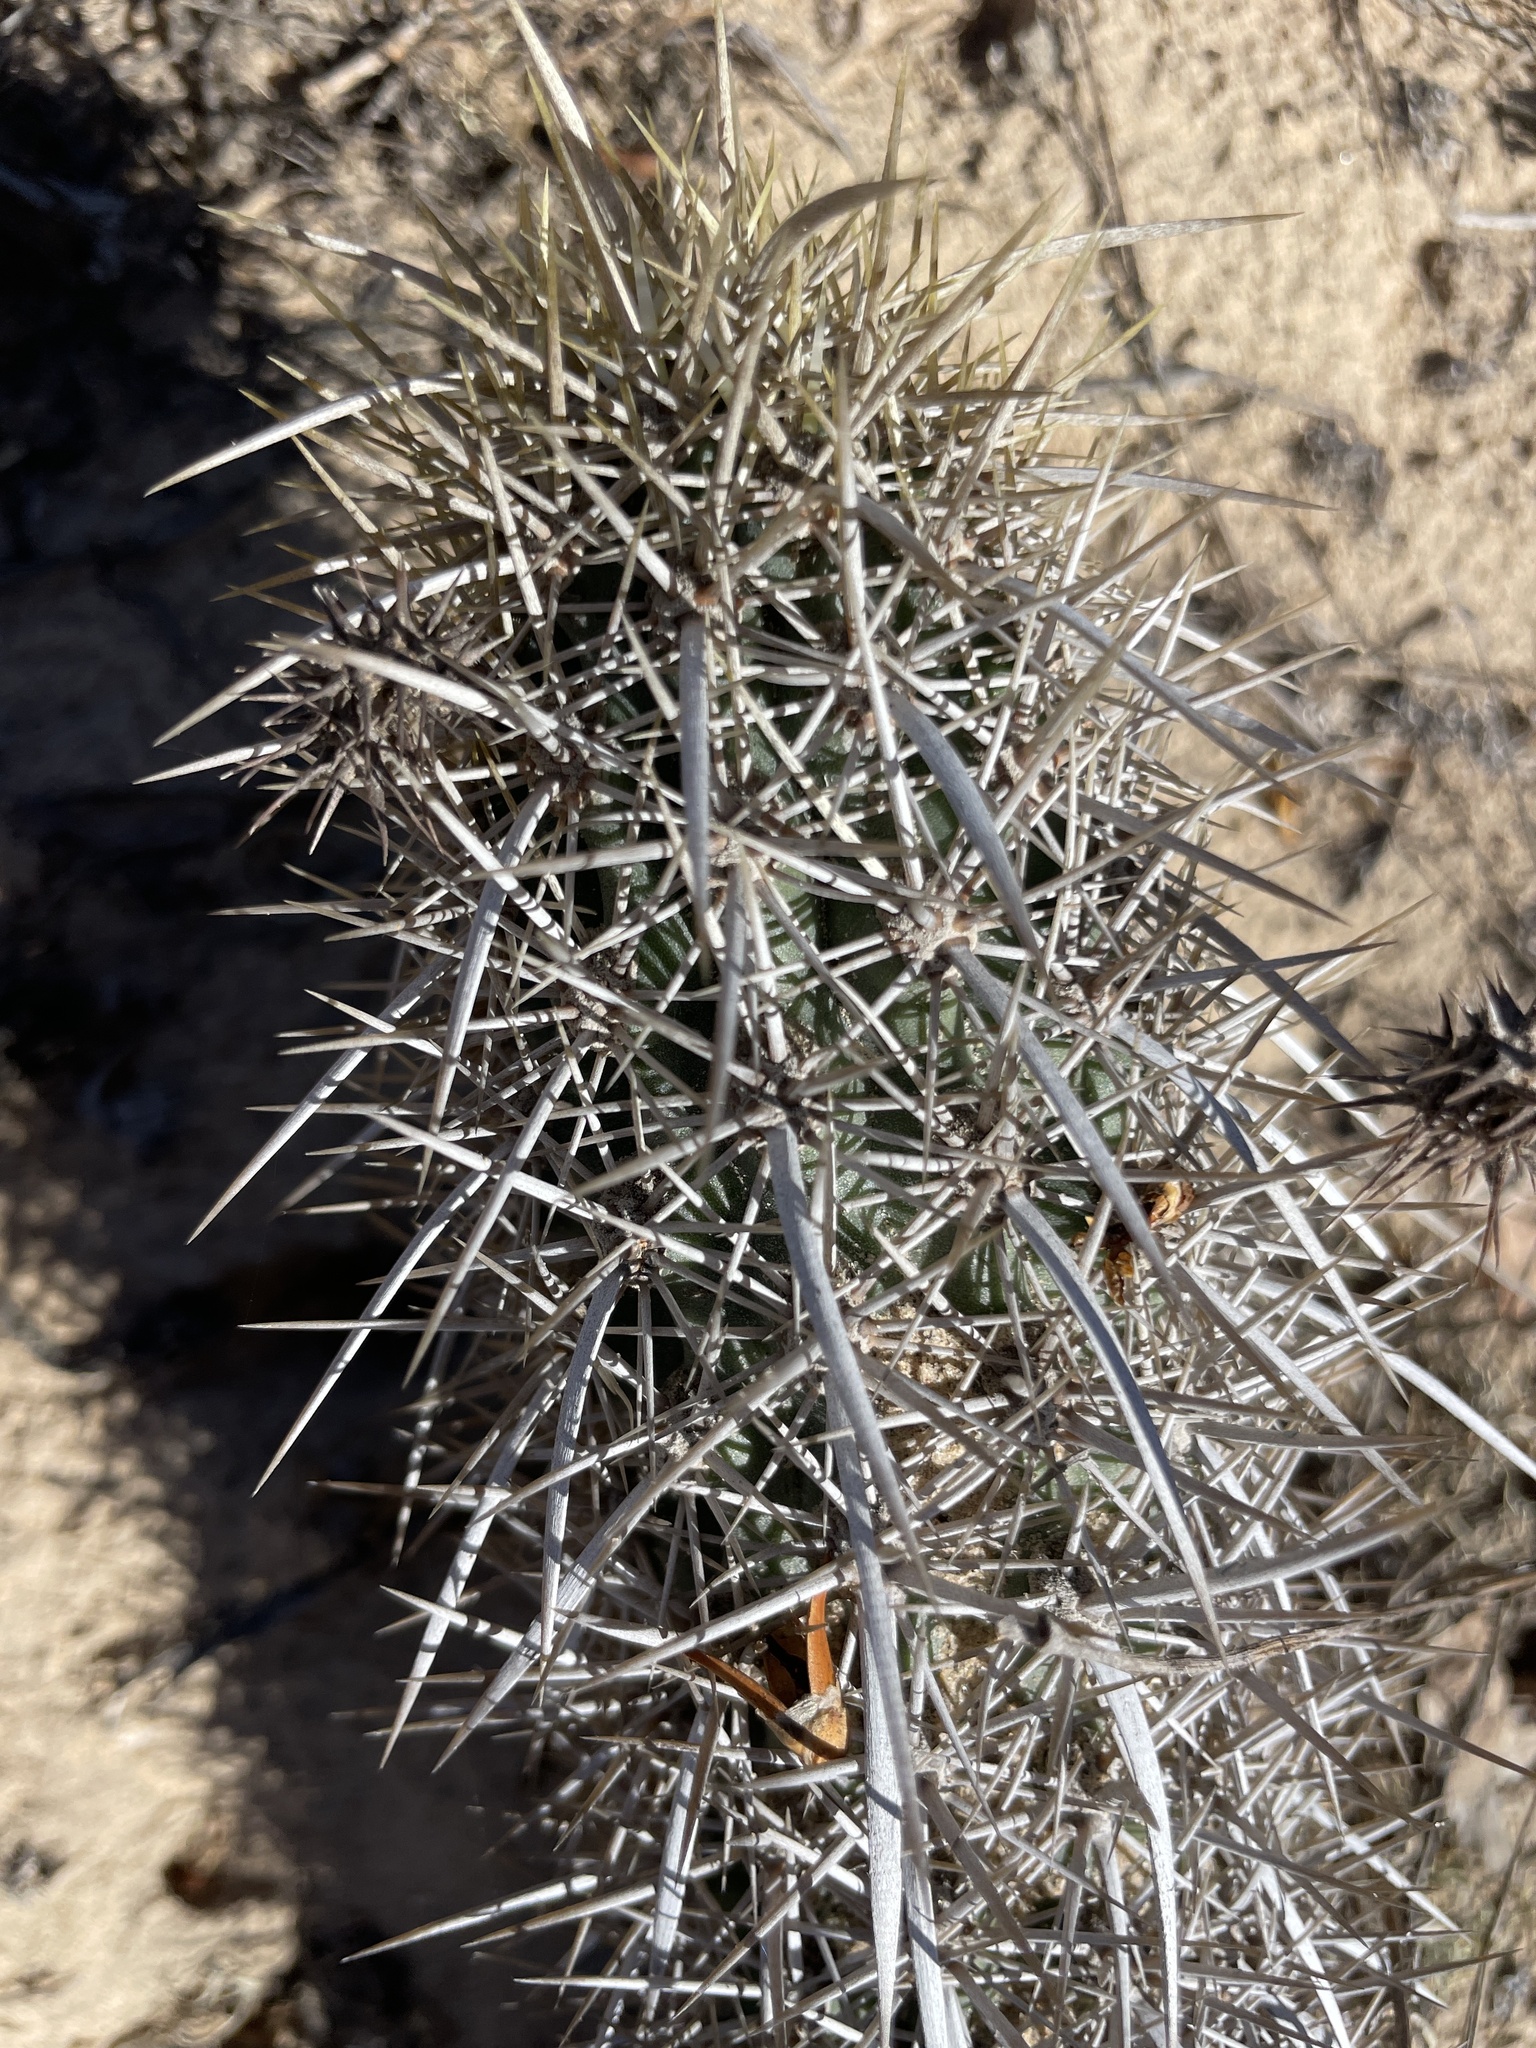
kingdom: Plantae
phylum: Tracheophyta
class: Magnoliopsida
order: Caryophyllales
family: Cactaceae
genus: Stenocereus
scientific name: Stenocereus eruca
